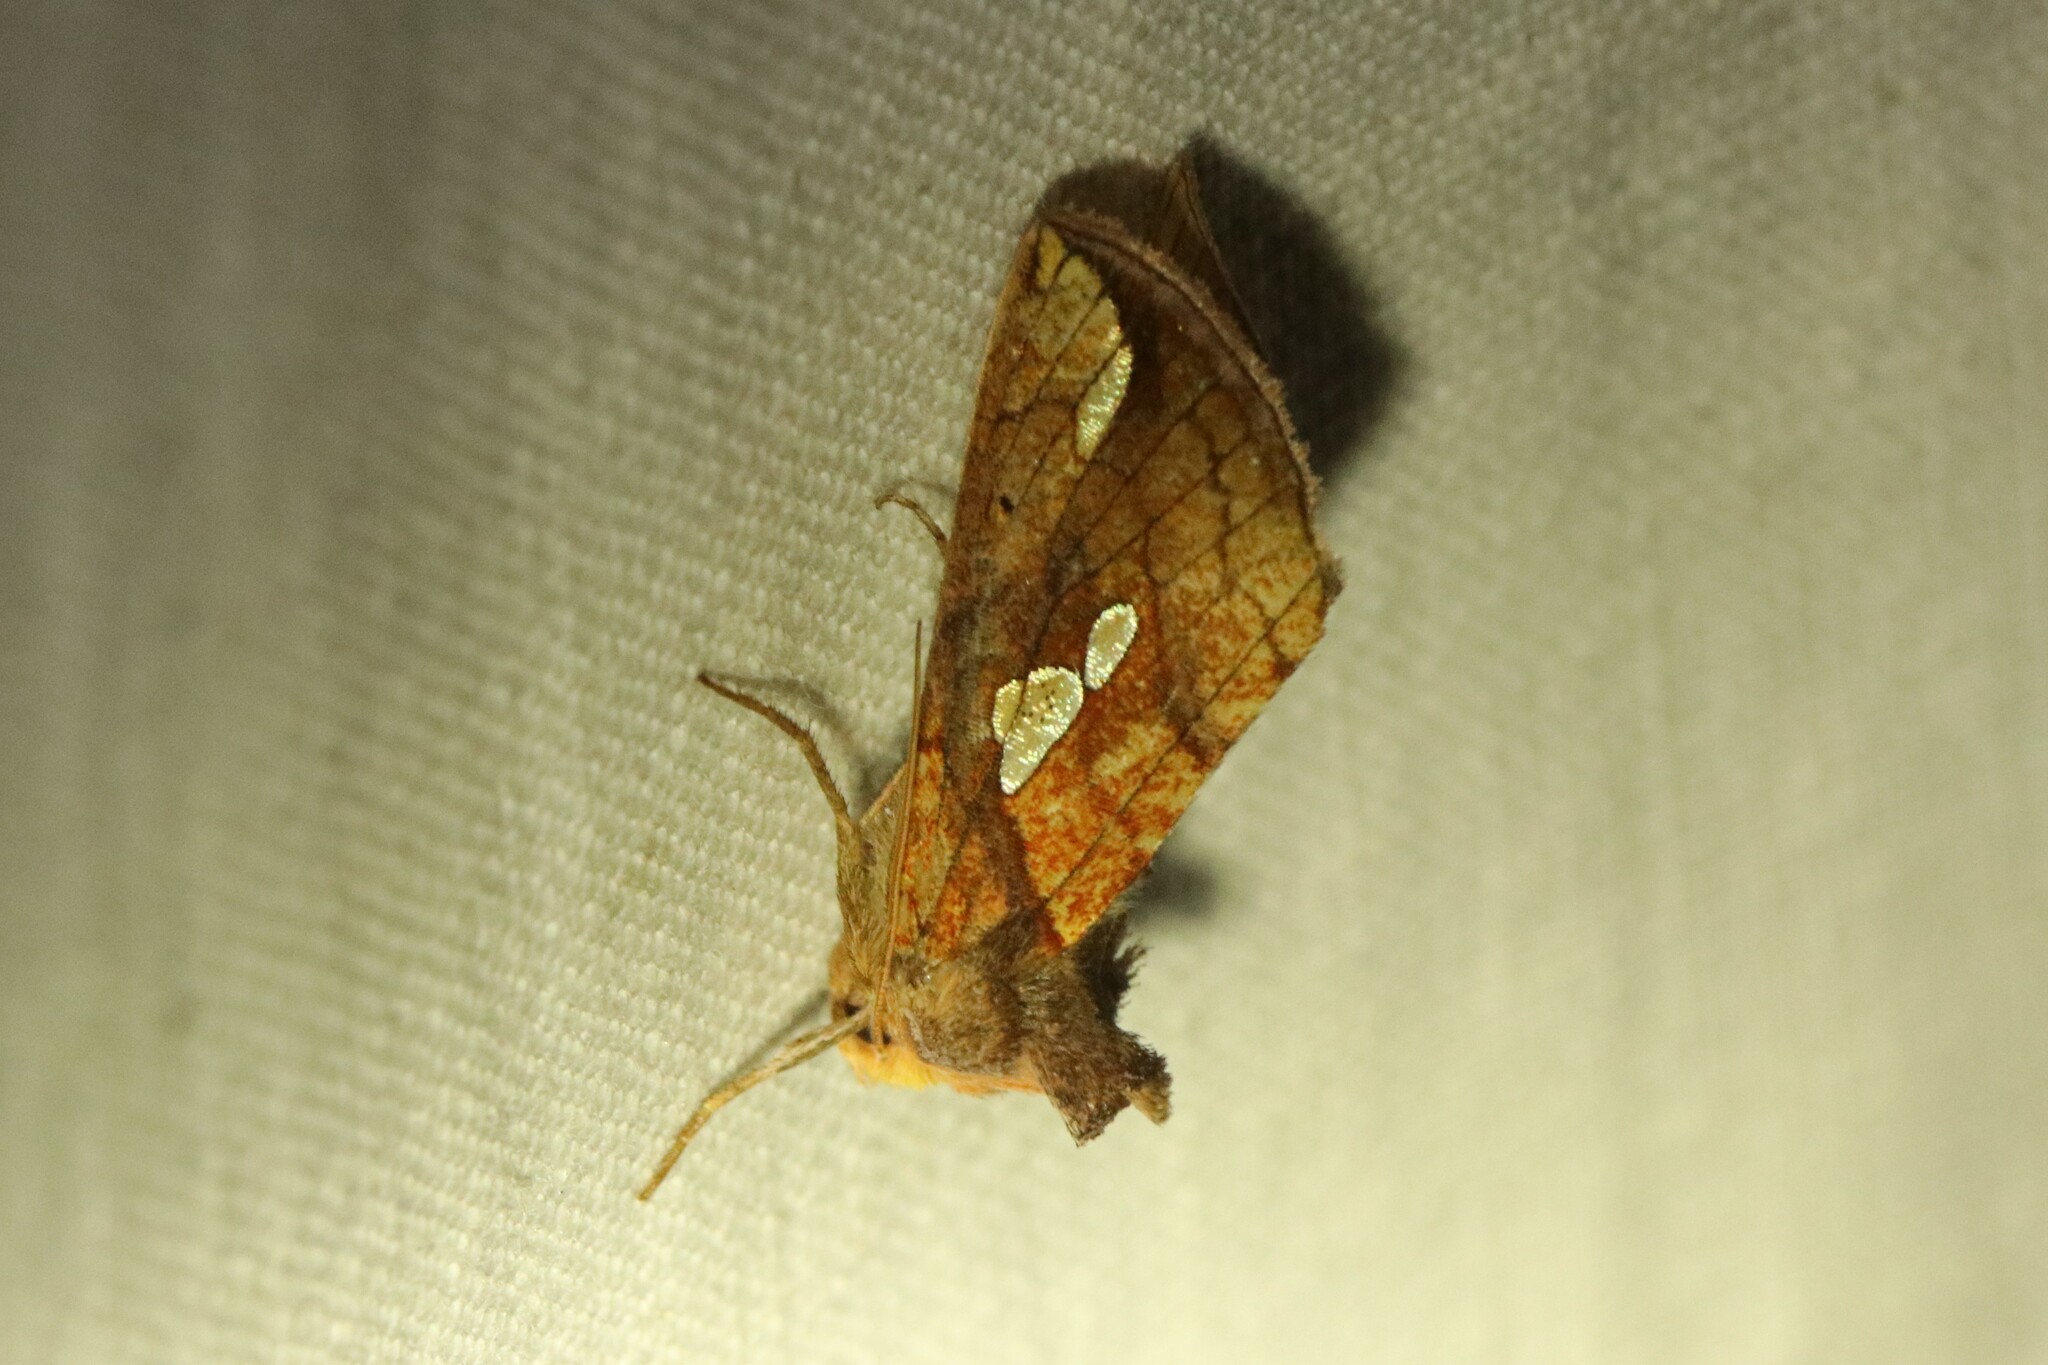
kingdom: Animalia
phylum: Arthropoda
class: Insecta
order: Lepidoptera
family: Noctuidae
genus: Plusia
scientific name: Plusia putnami
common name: Lempke's gold spot
